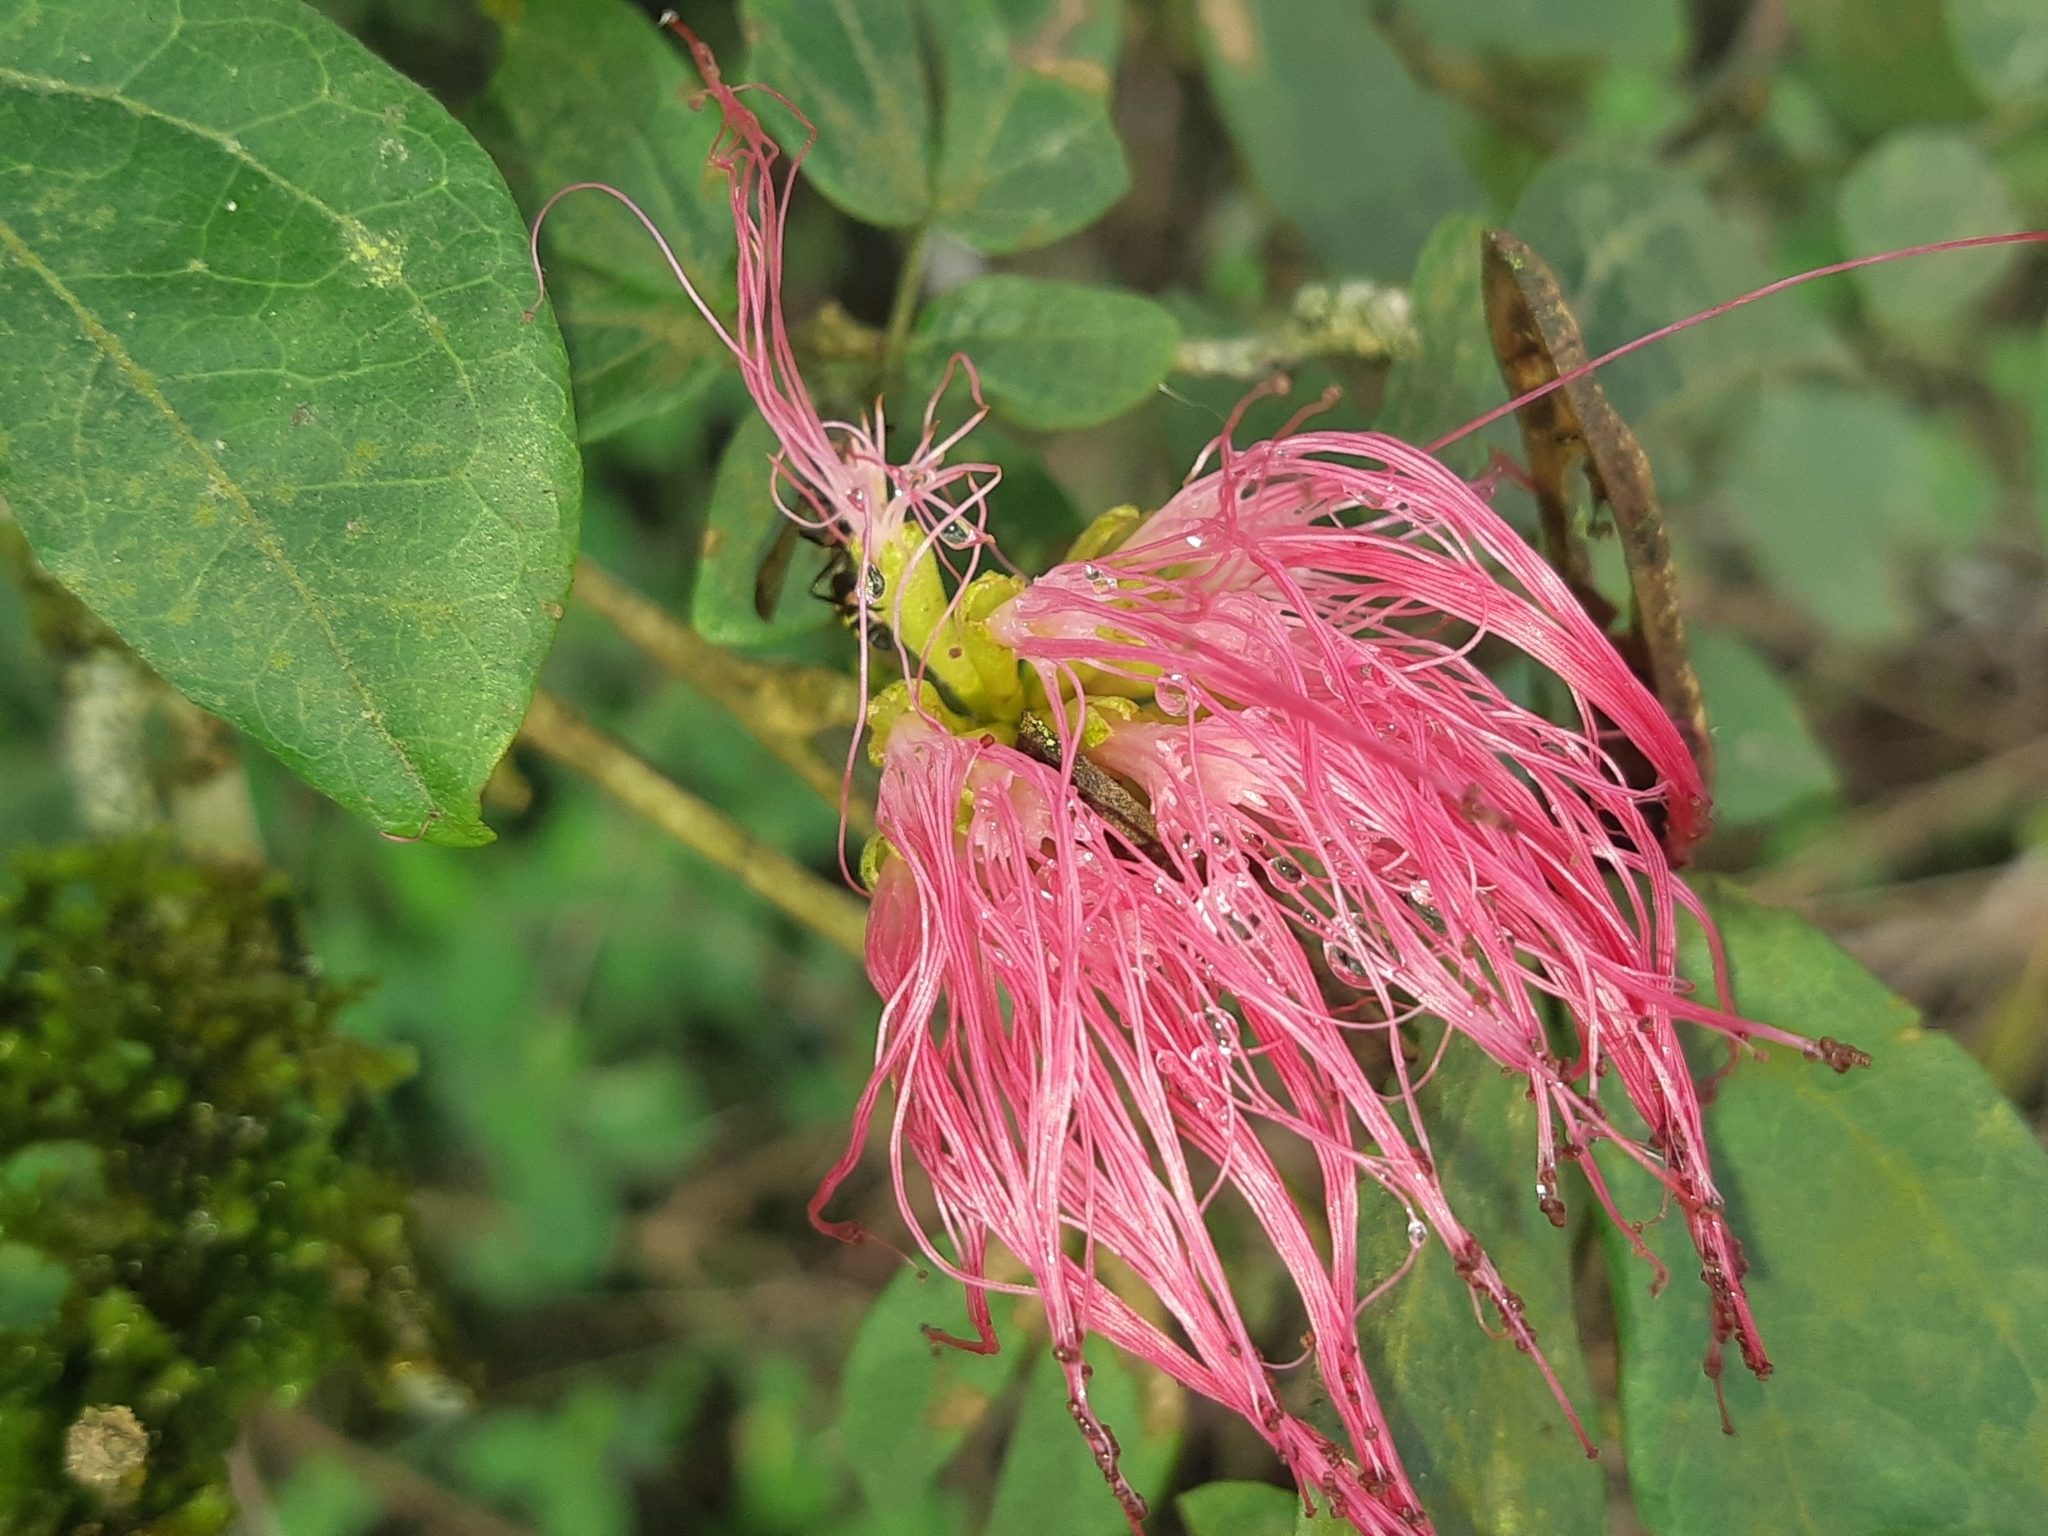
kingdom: Plantae
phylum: Tracheophyta
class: Magnoliopsida
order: Fabales
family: Fabaceae
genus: Calliandra
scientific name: Calliandra angustifolia
